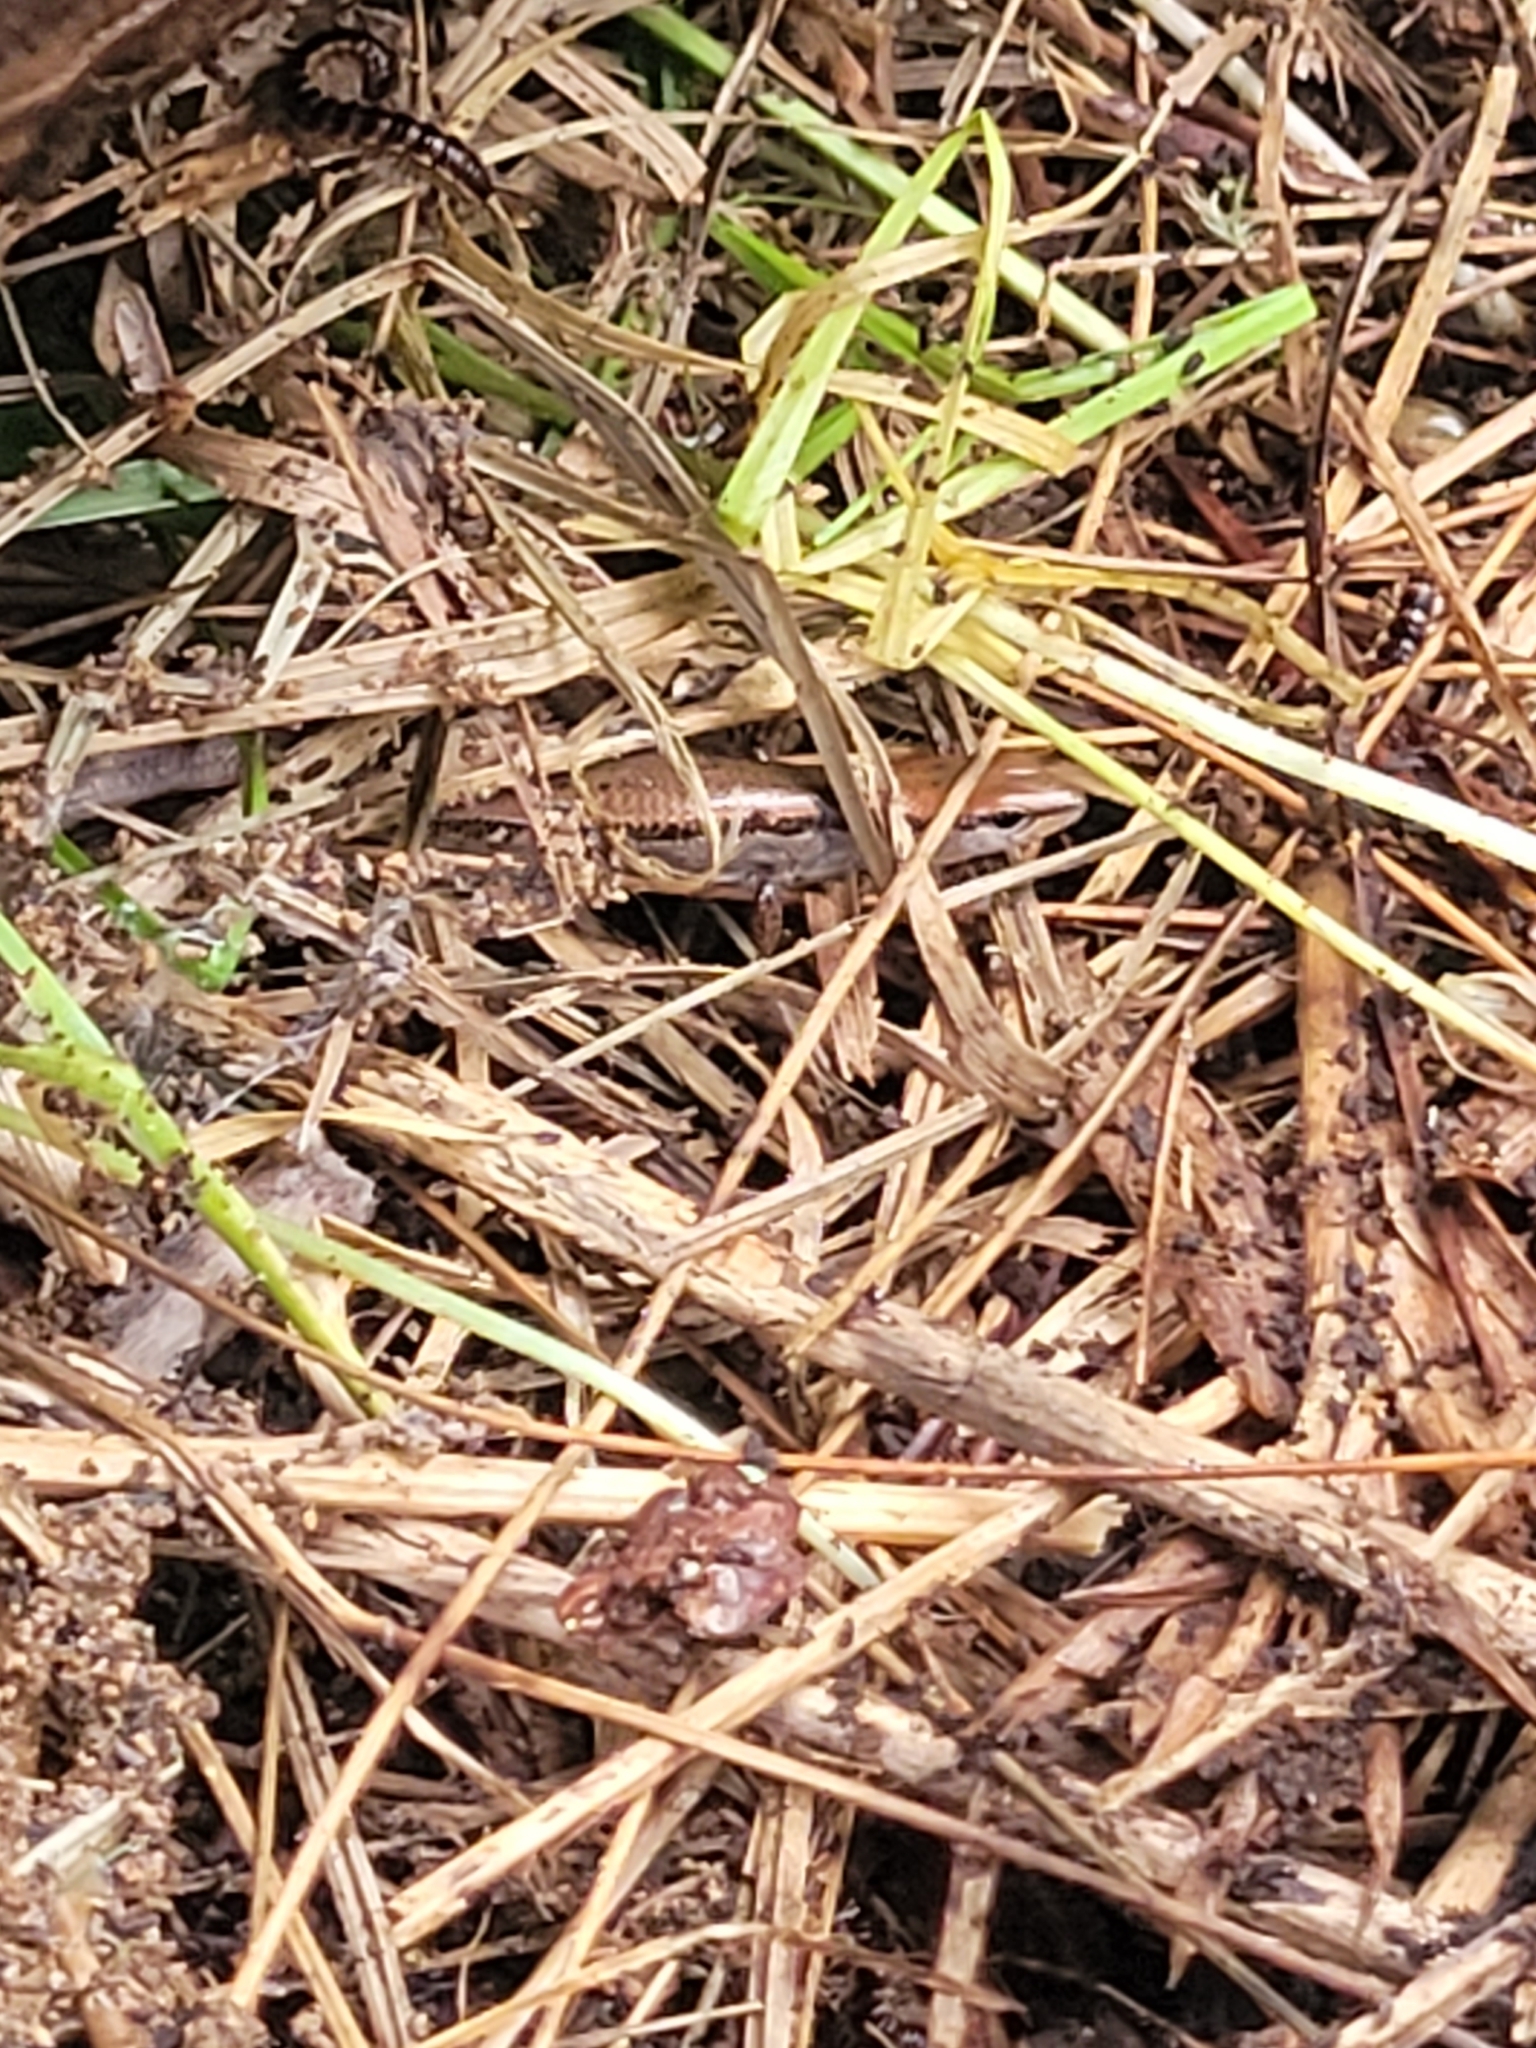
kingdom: Animalia
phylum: Chordata
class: Squamata
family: Scincidae
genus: Scincella
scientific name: Scincella lateralis
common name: Ground skink
